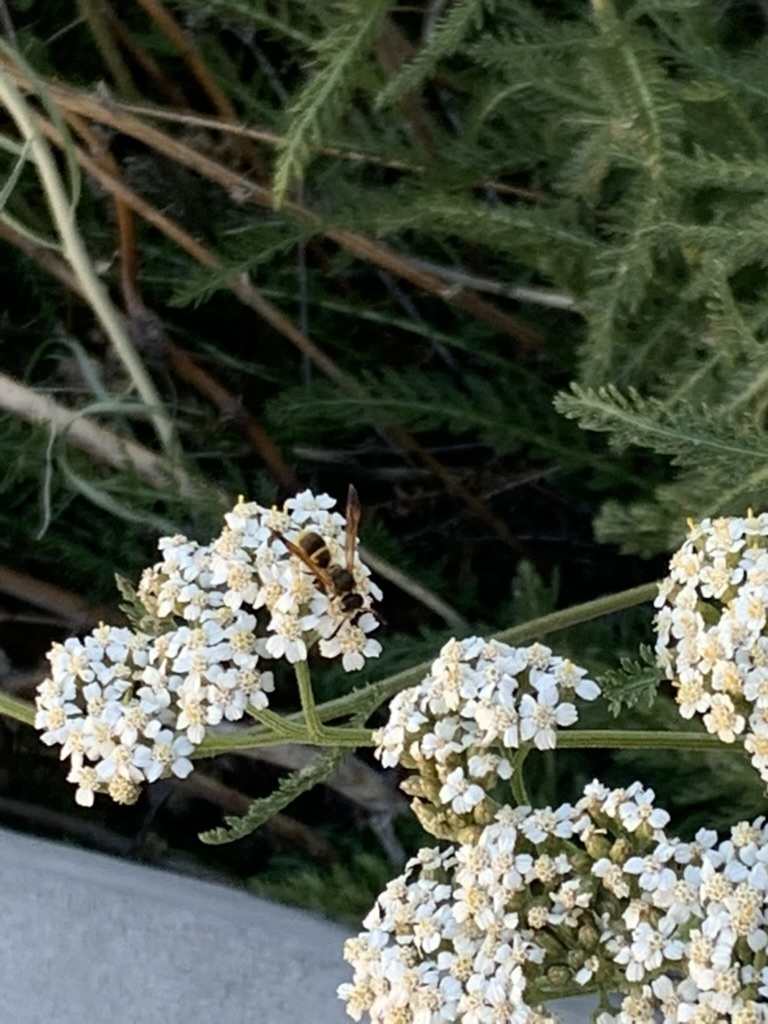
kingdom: Animalia
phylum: Arthropoda
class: Insecta
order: Hymenoptera
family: Vespidae
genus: Ancistrocerus
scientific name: Ancistrocerus
